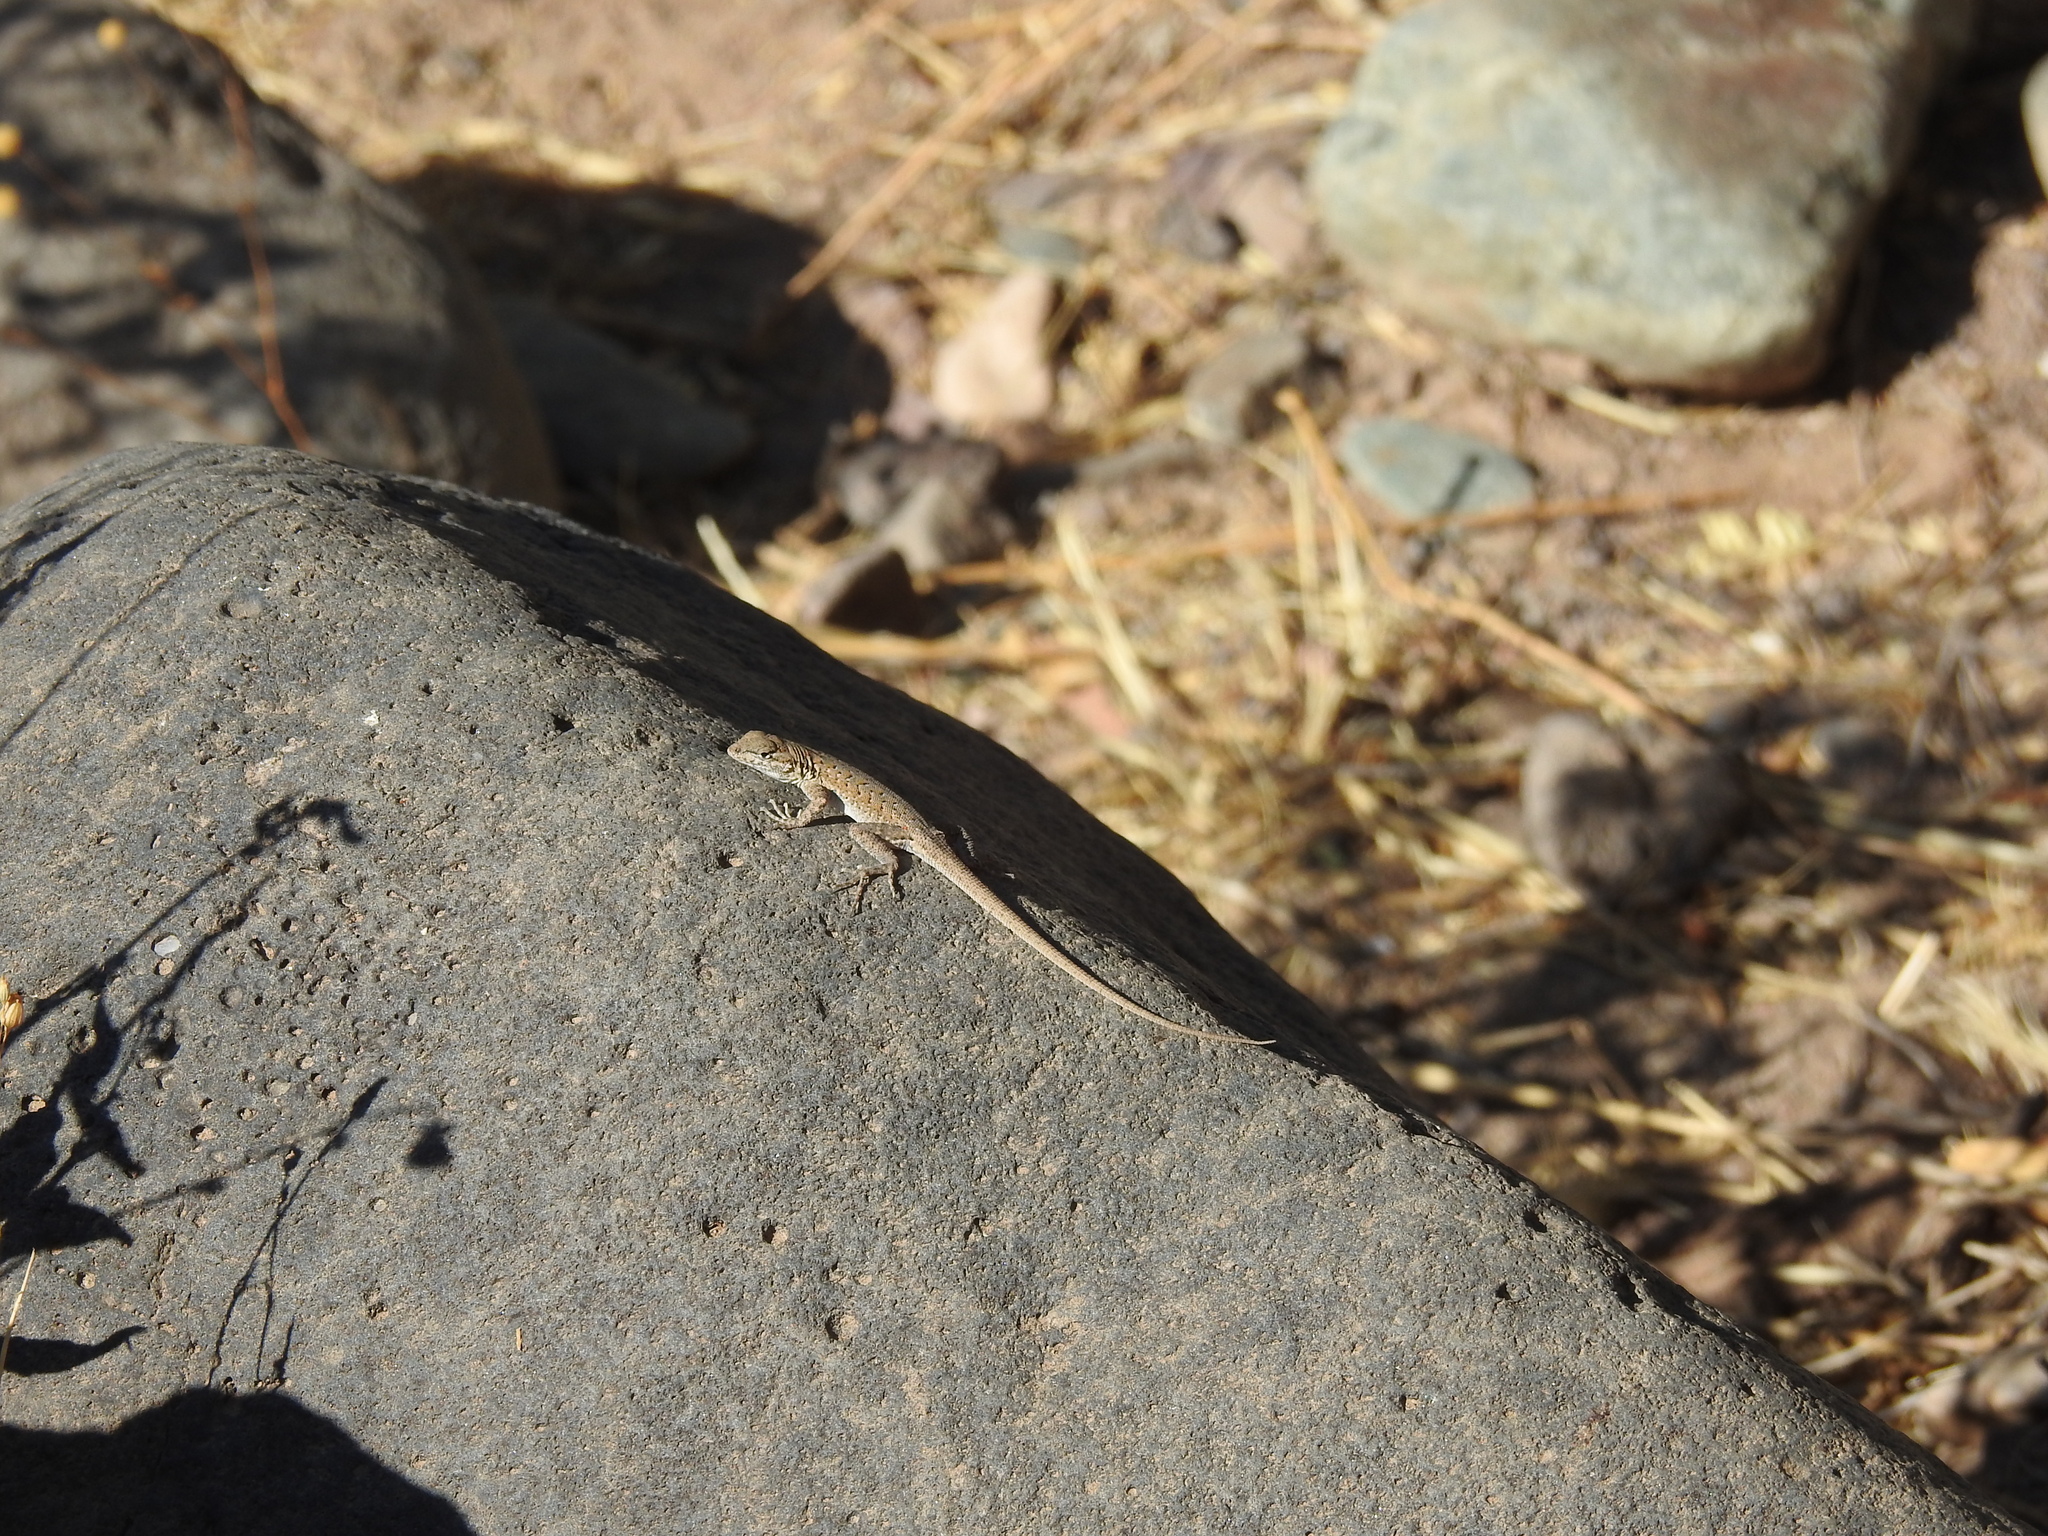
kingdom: Animalia
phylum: Chordata
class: Squamata
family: Phrynosomatidae
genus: Uta
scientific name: Uta stansburiana
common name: Side-blotched lizard
